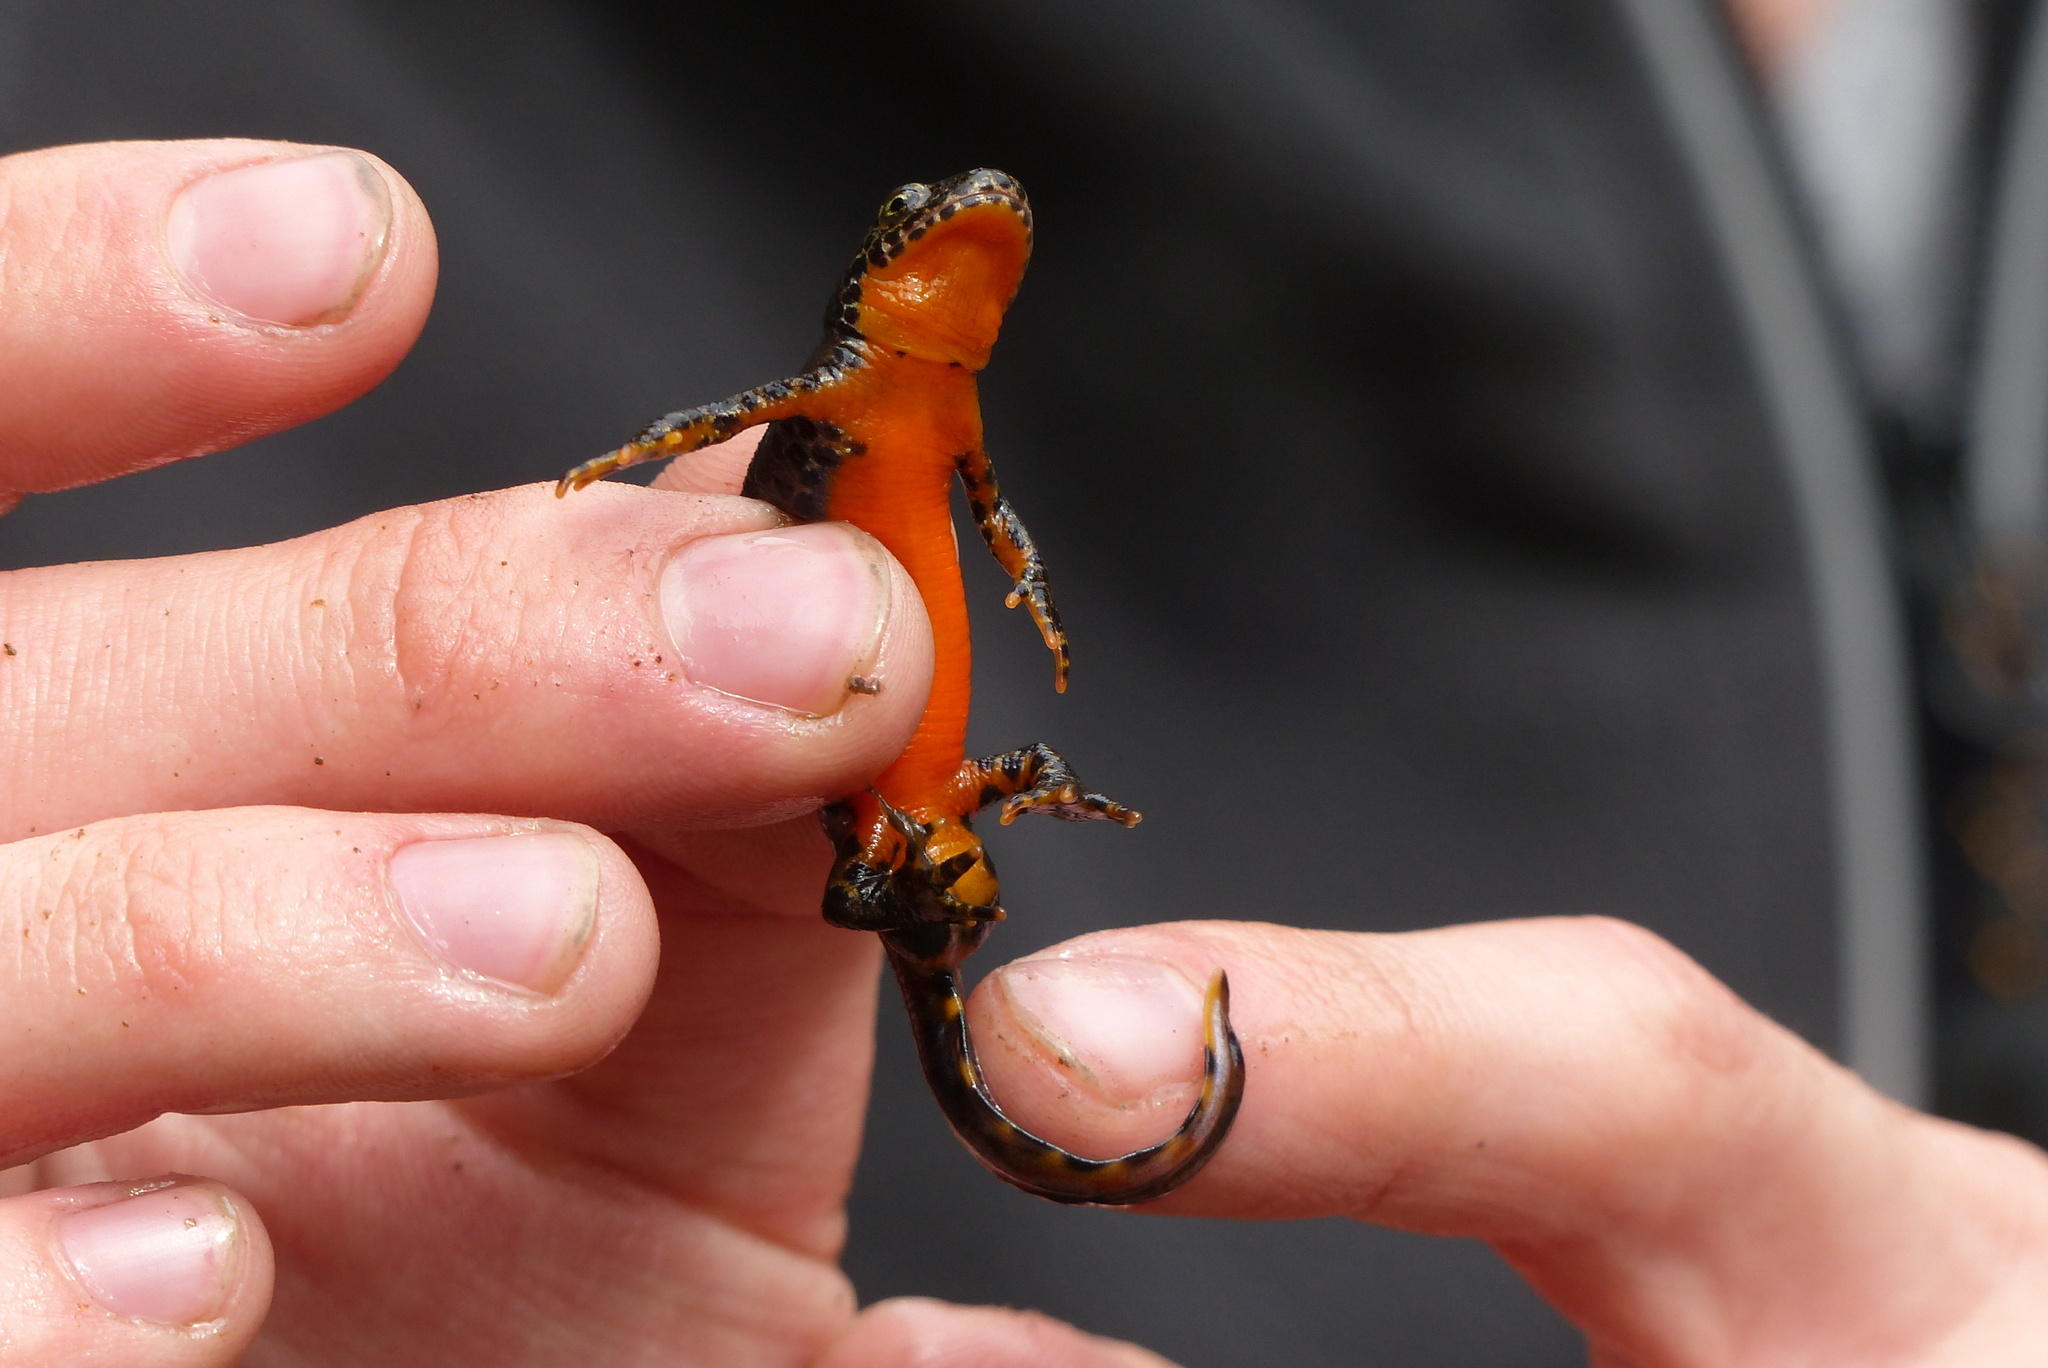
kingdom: Animalia
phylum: Chordata
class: Amphibia
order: Caudata
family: Salamandridae
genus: Ichthyosaura
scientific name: Ichthyosaura alpestris
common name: Alpine newt
